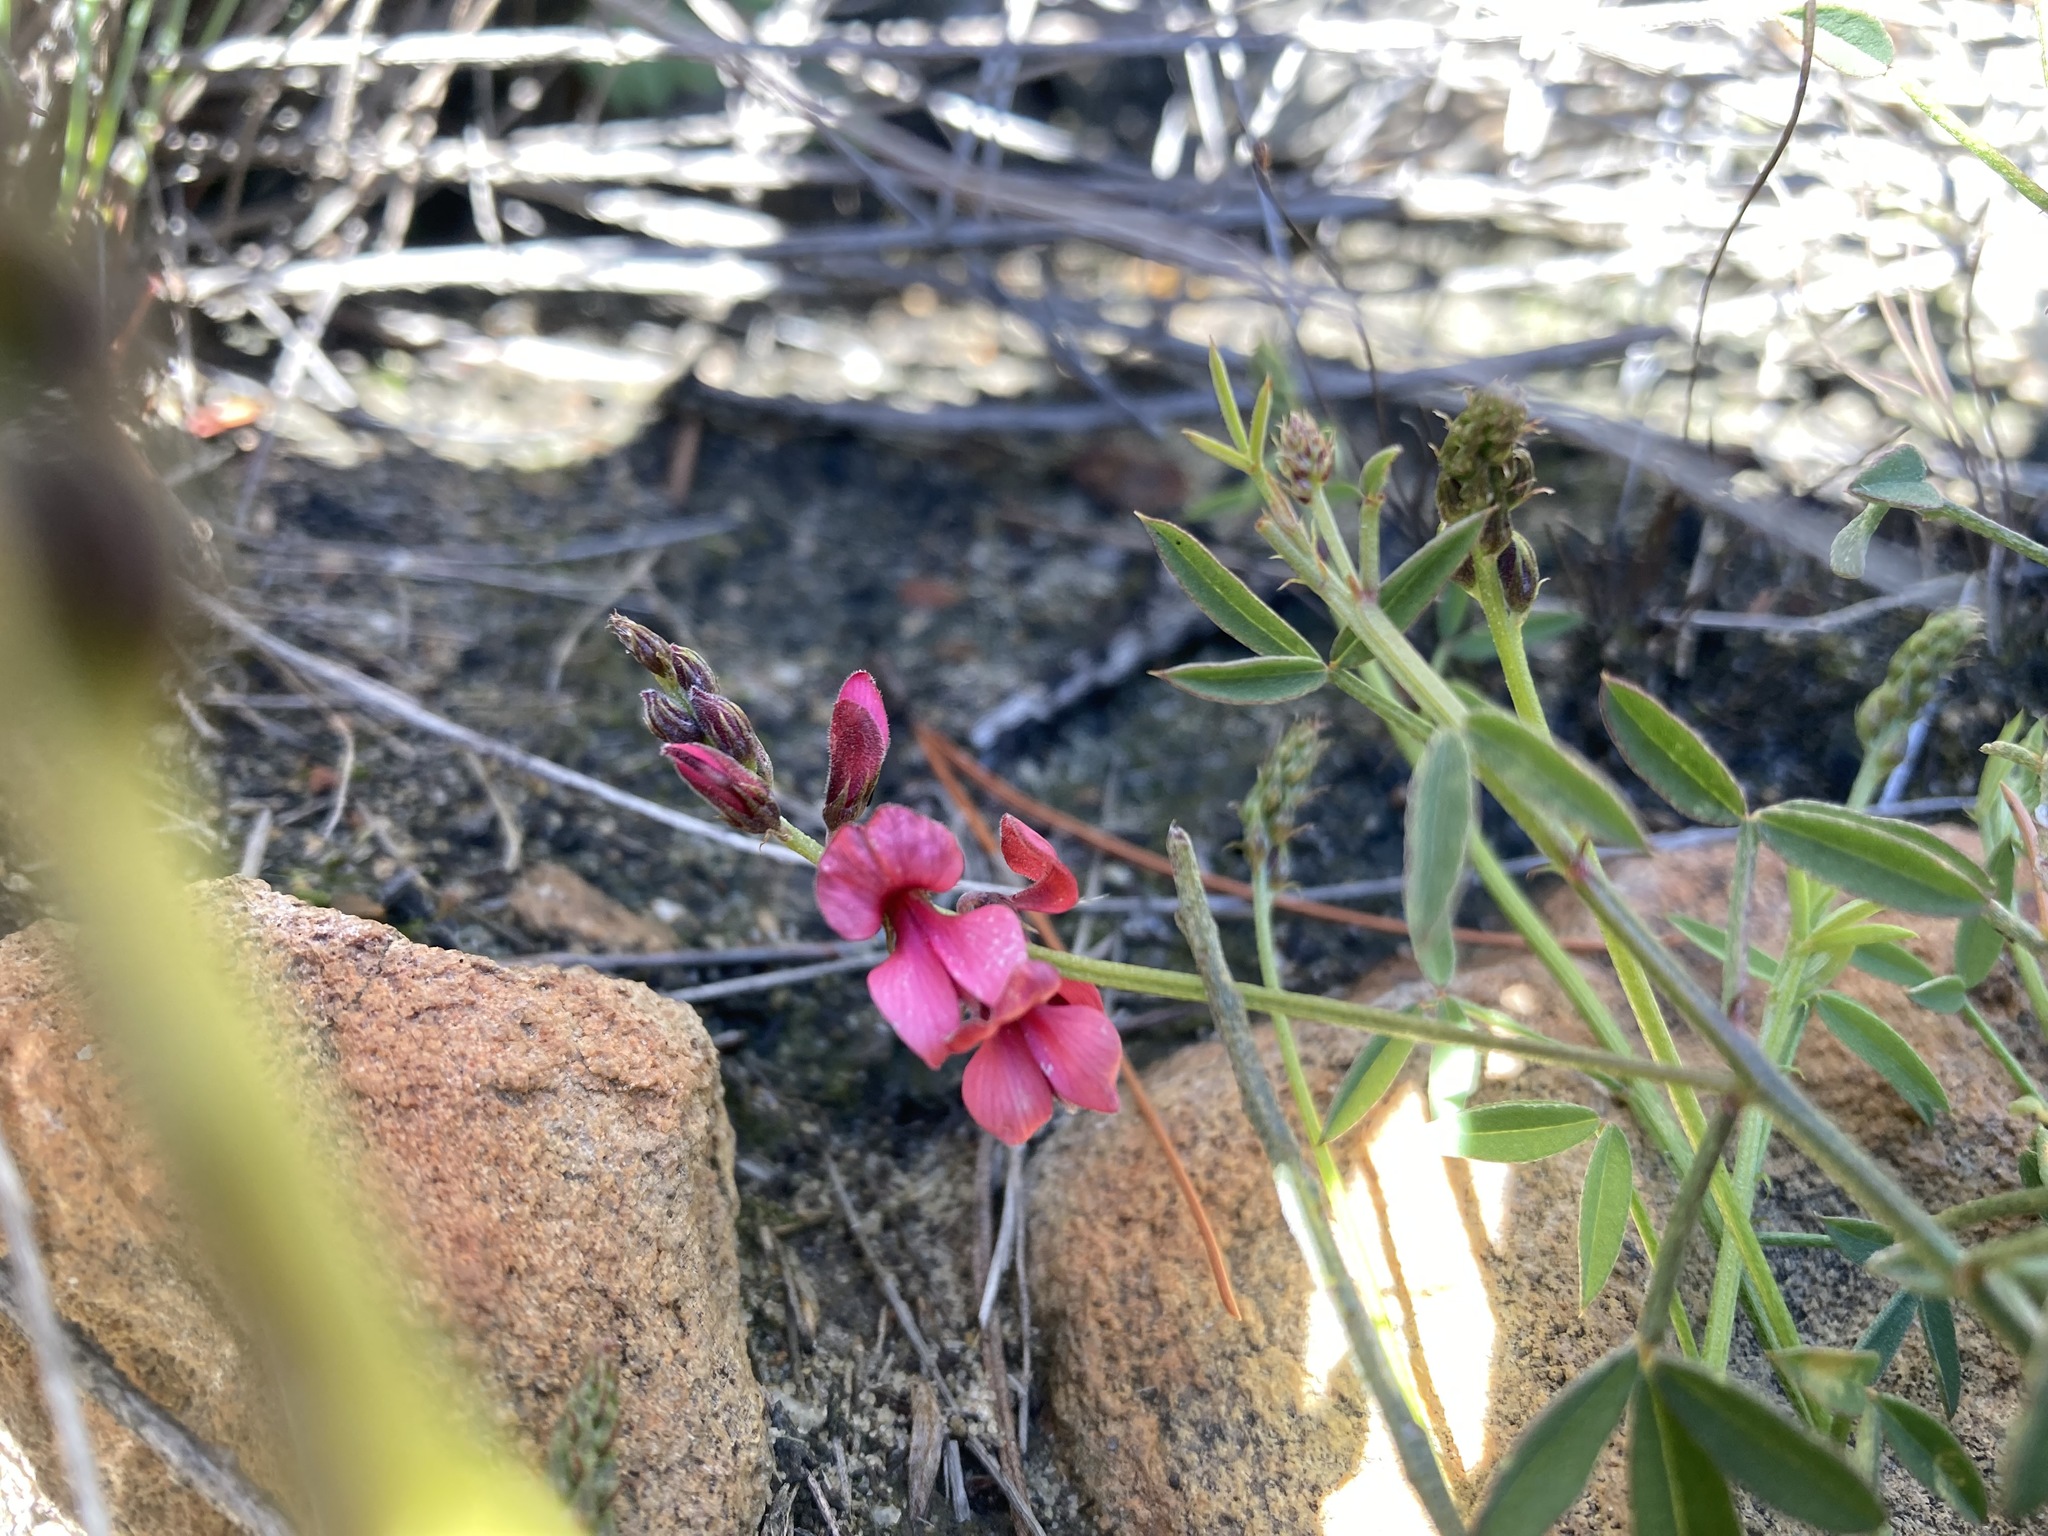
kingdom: Plantae
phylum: Tracheophyta
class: Magnoliopsida
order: Fabales
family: Fabaceae
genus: Indigofera
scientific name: Indigofera heterophylla
